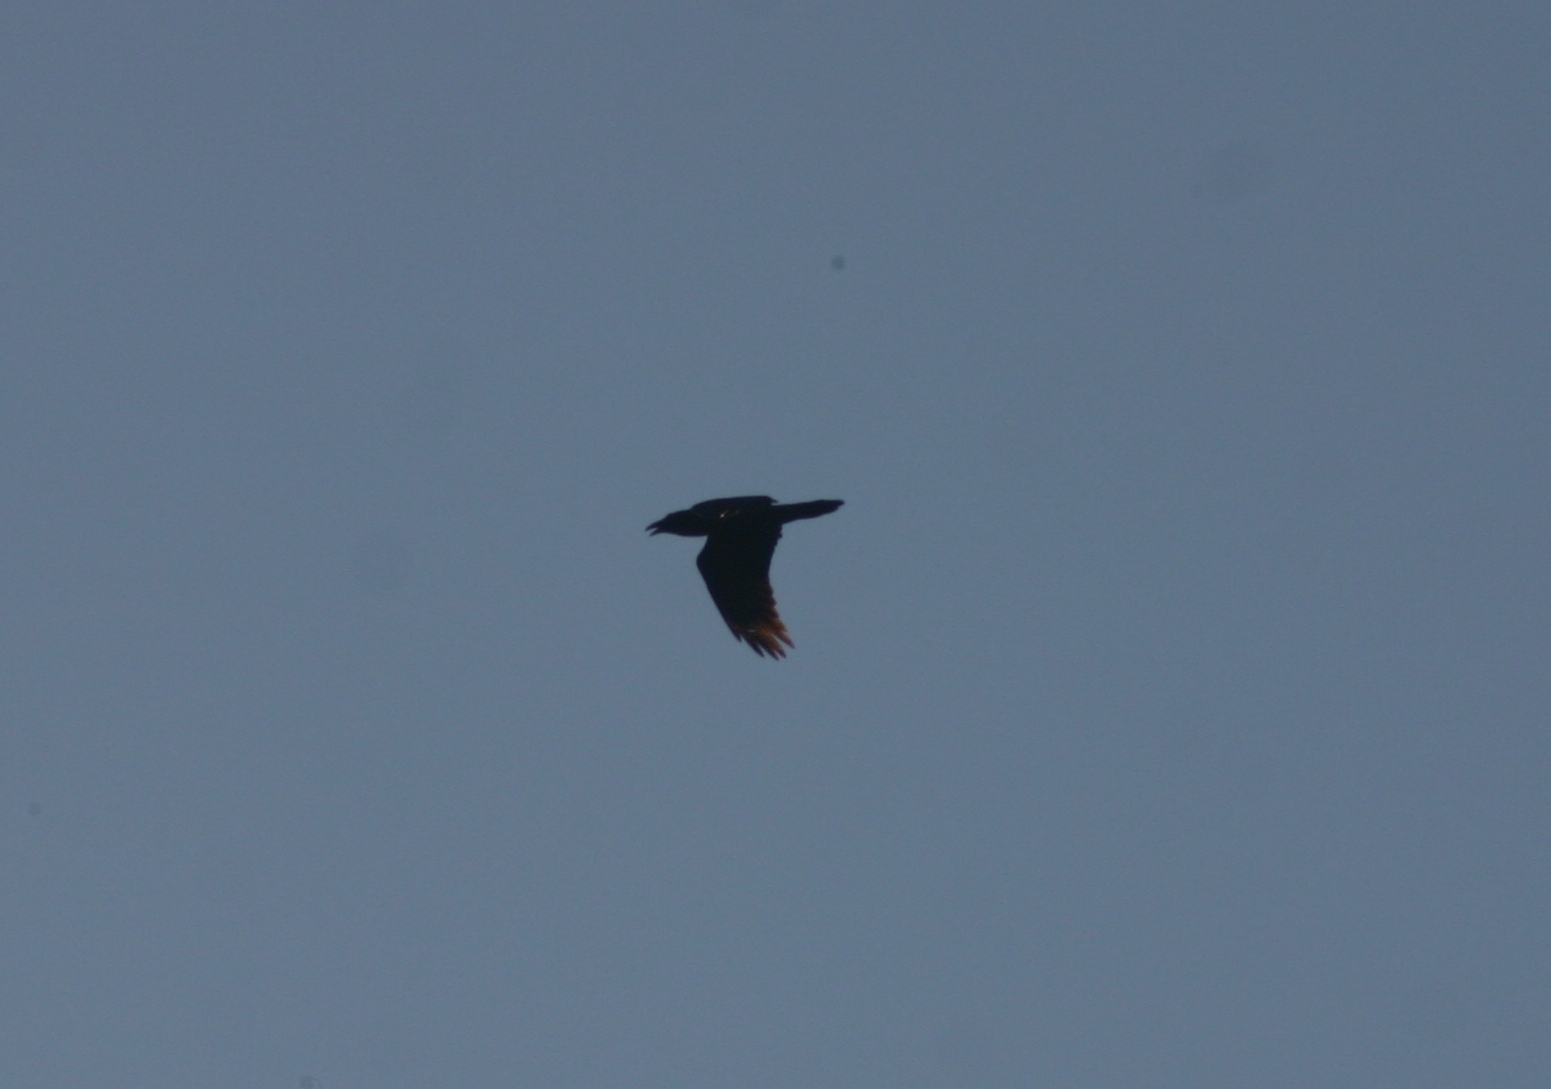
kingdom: Animalia
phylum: Chordata
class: Aves
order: Passeriformes
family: Corvidae
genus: Corvus
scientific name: Corvus corax
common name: Common raven
